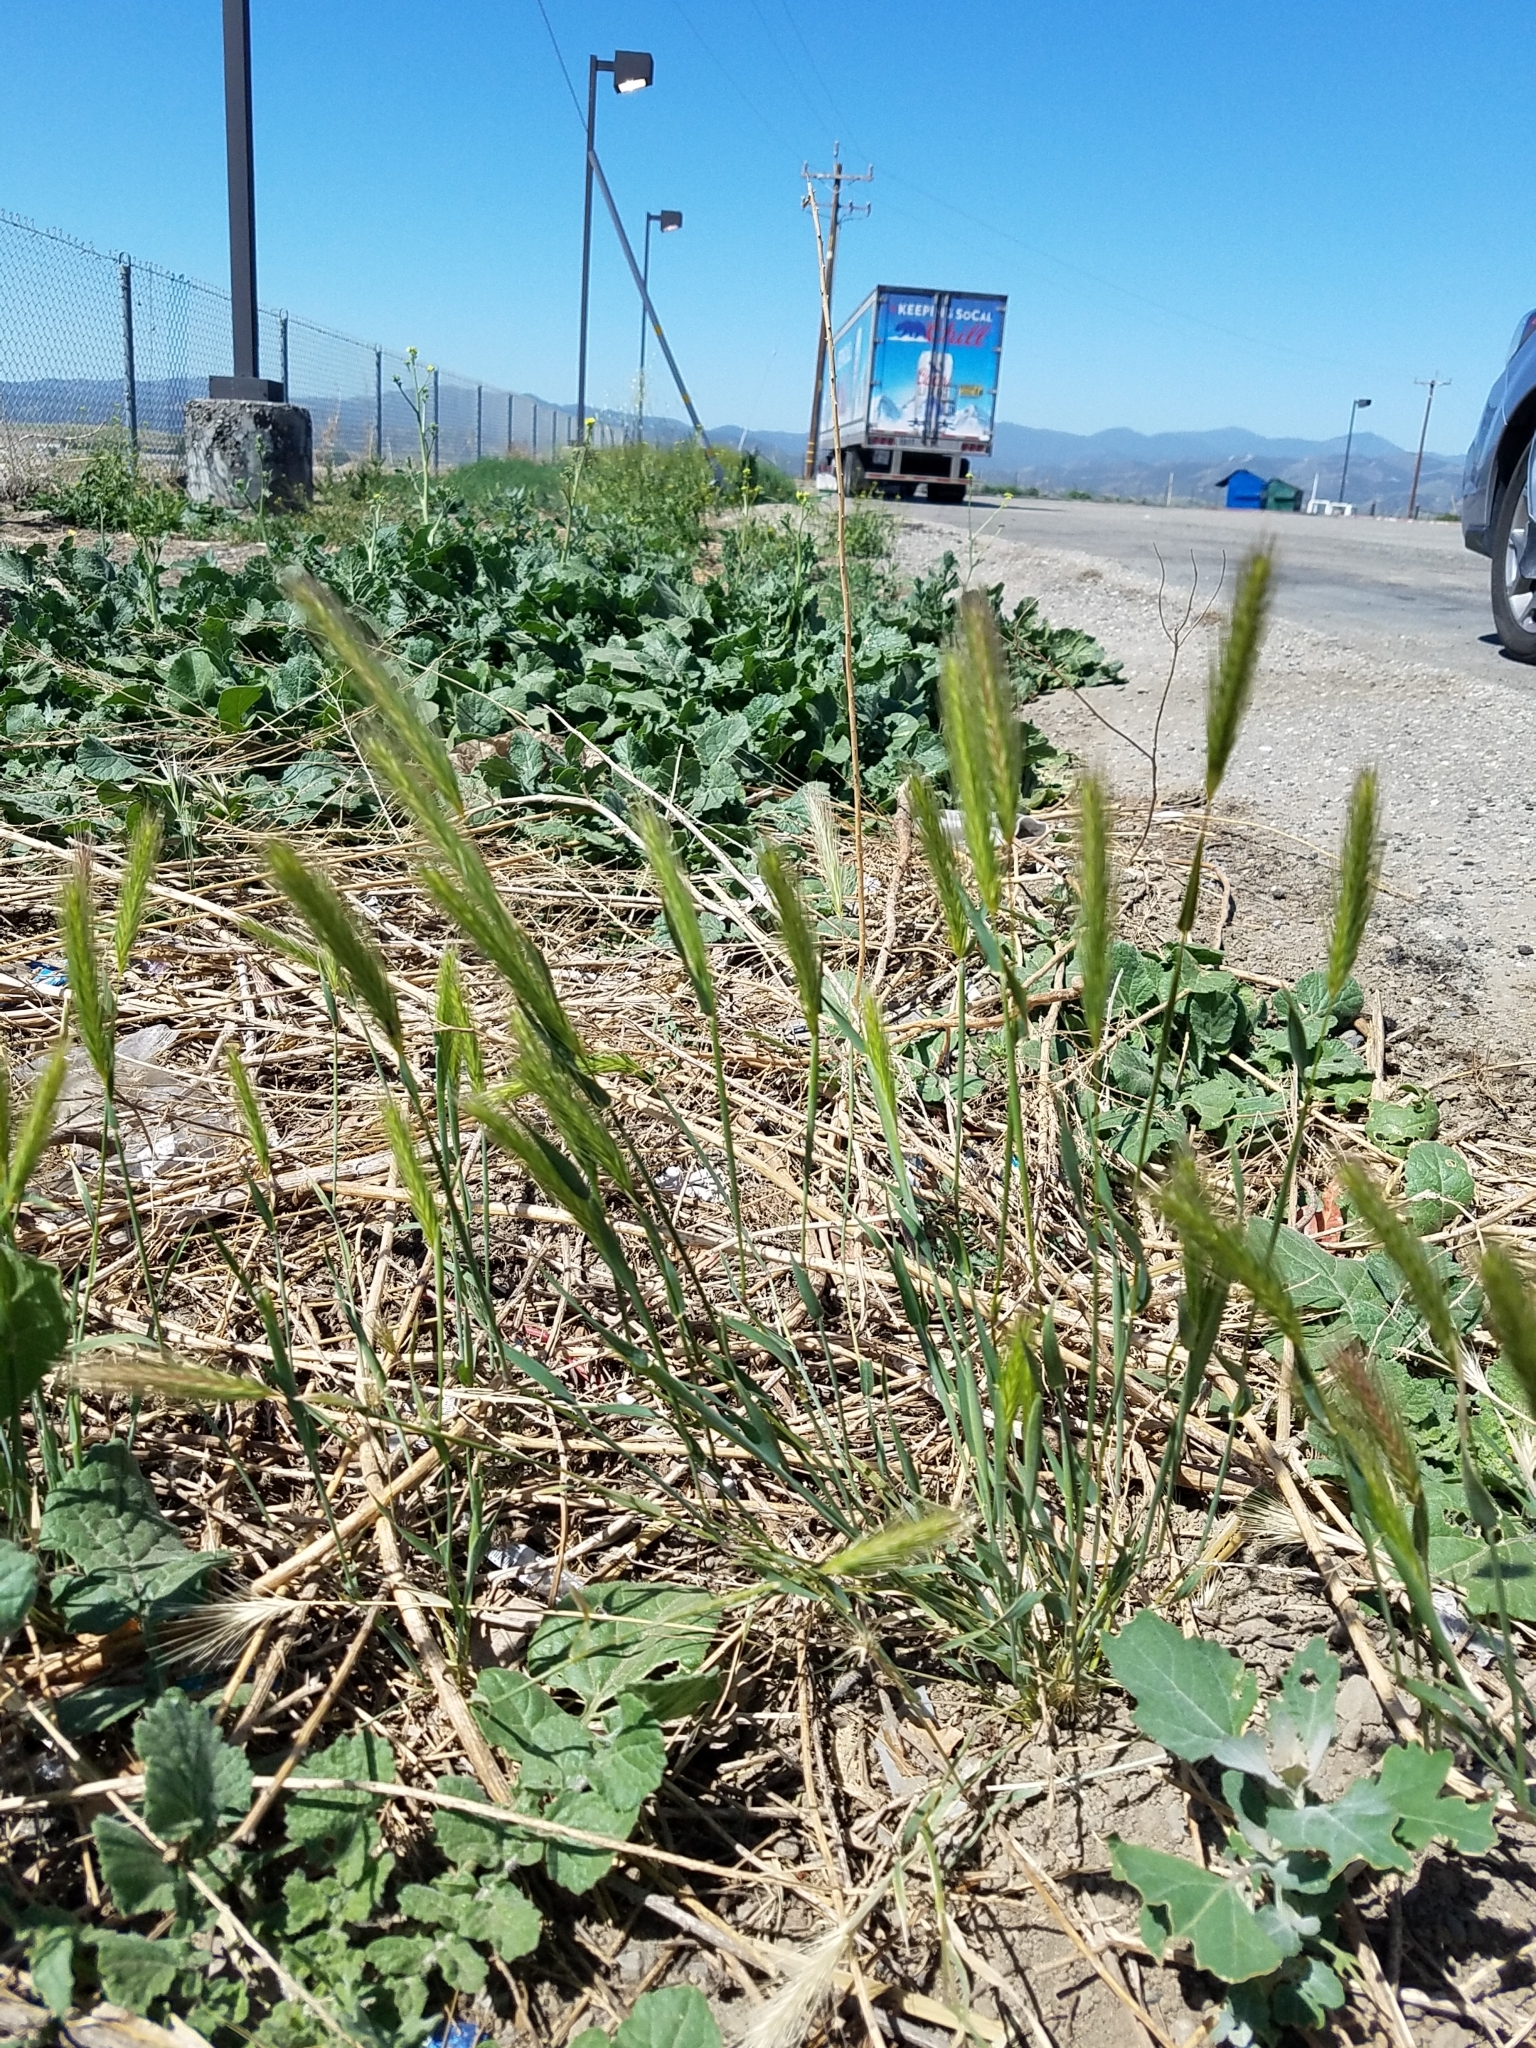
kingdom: Plantae
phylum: Tracheophyta
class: Liliopsida
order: Poales
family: Poaceae
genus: Hordeum
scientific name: Hordeum murinum
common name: Wall barley
